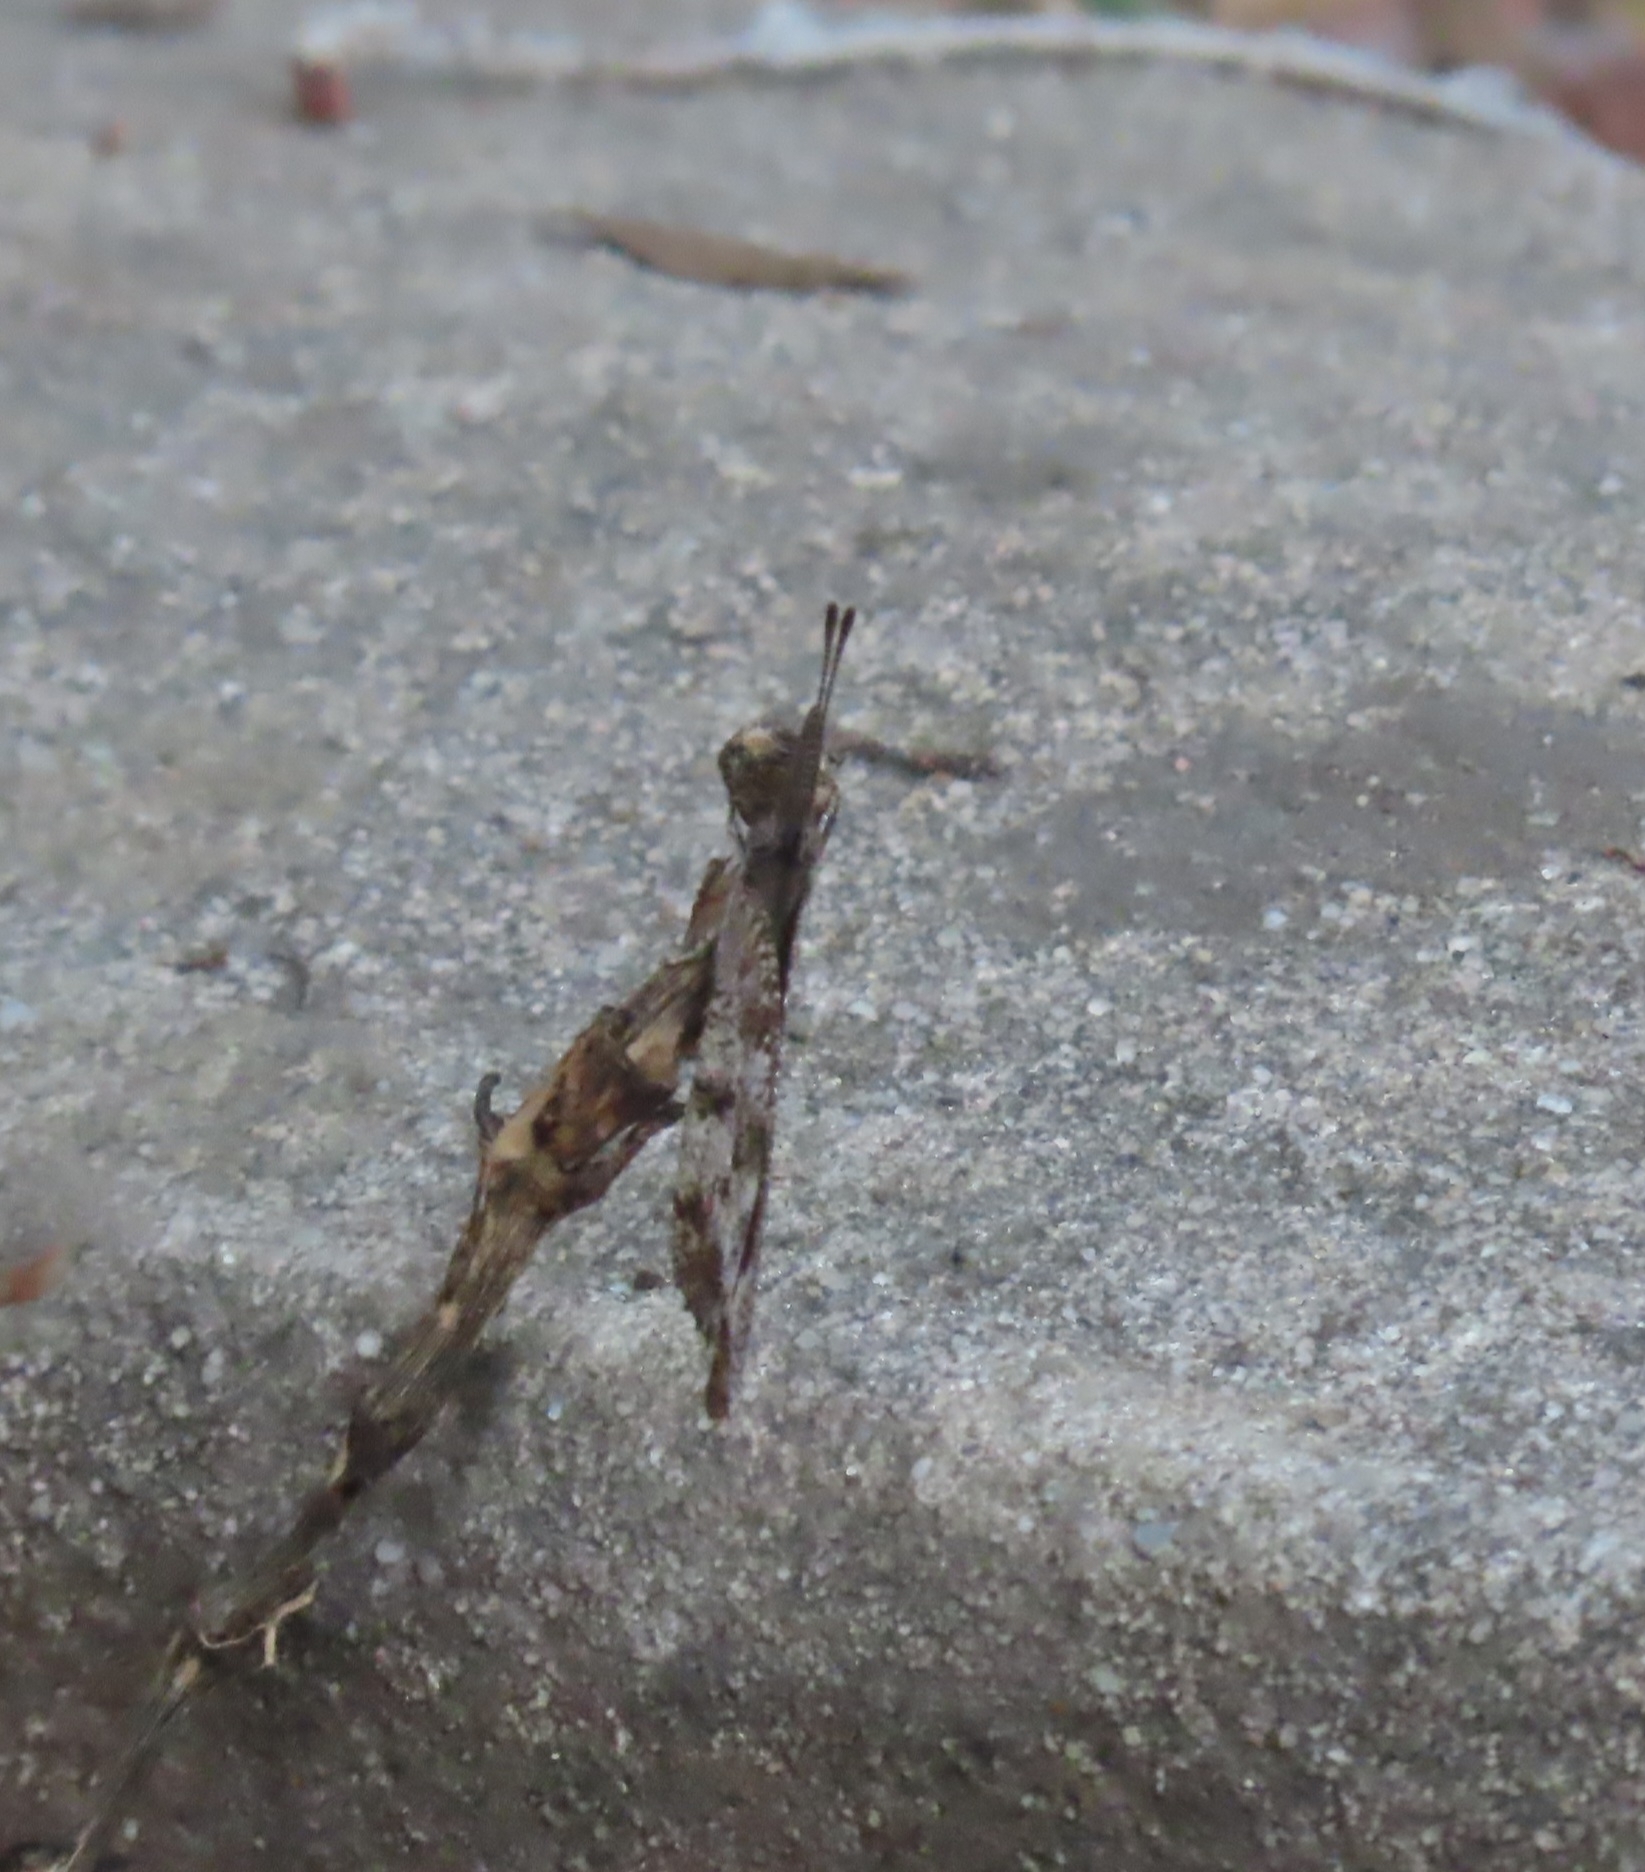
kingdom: Animalia
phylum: Arthropoda
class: Insecta
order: Lepidoptera
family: Nymphalidae
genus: Libytheana
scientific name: Libytheana carinenta
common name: American snout
